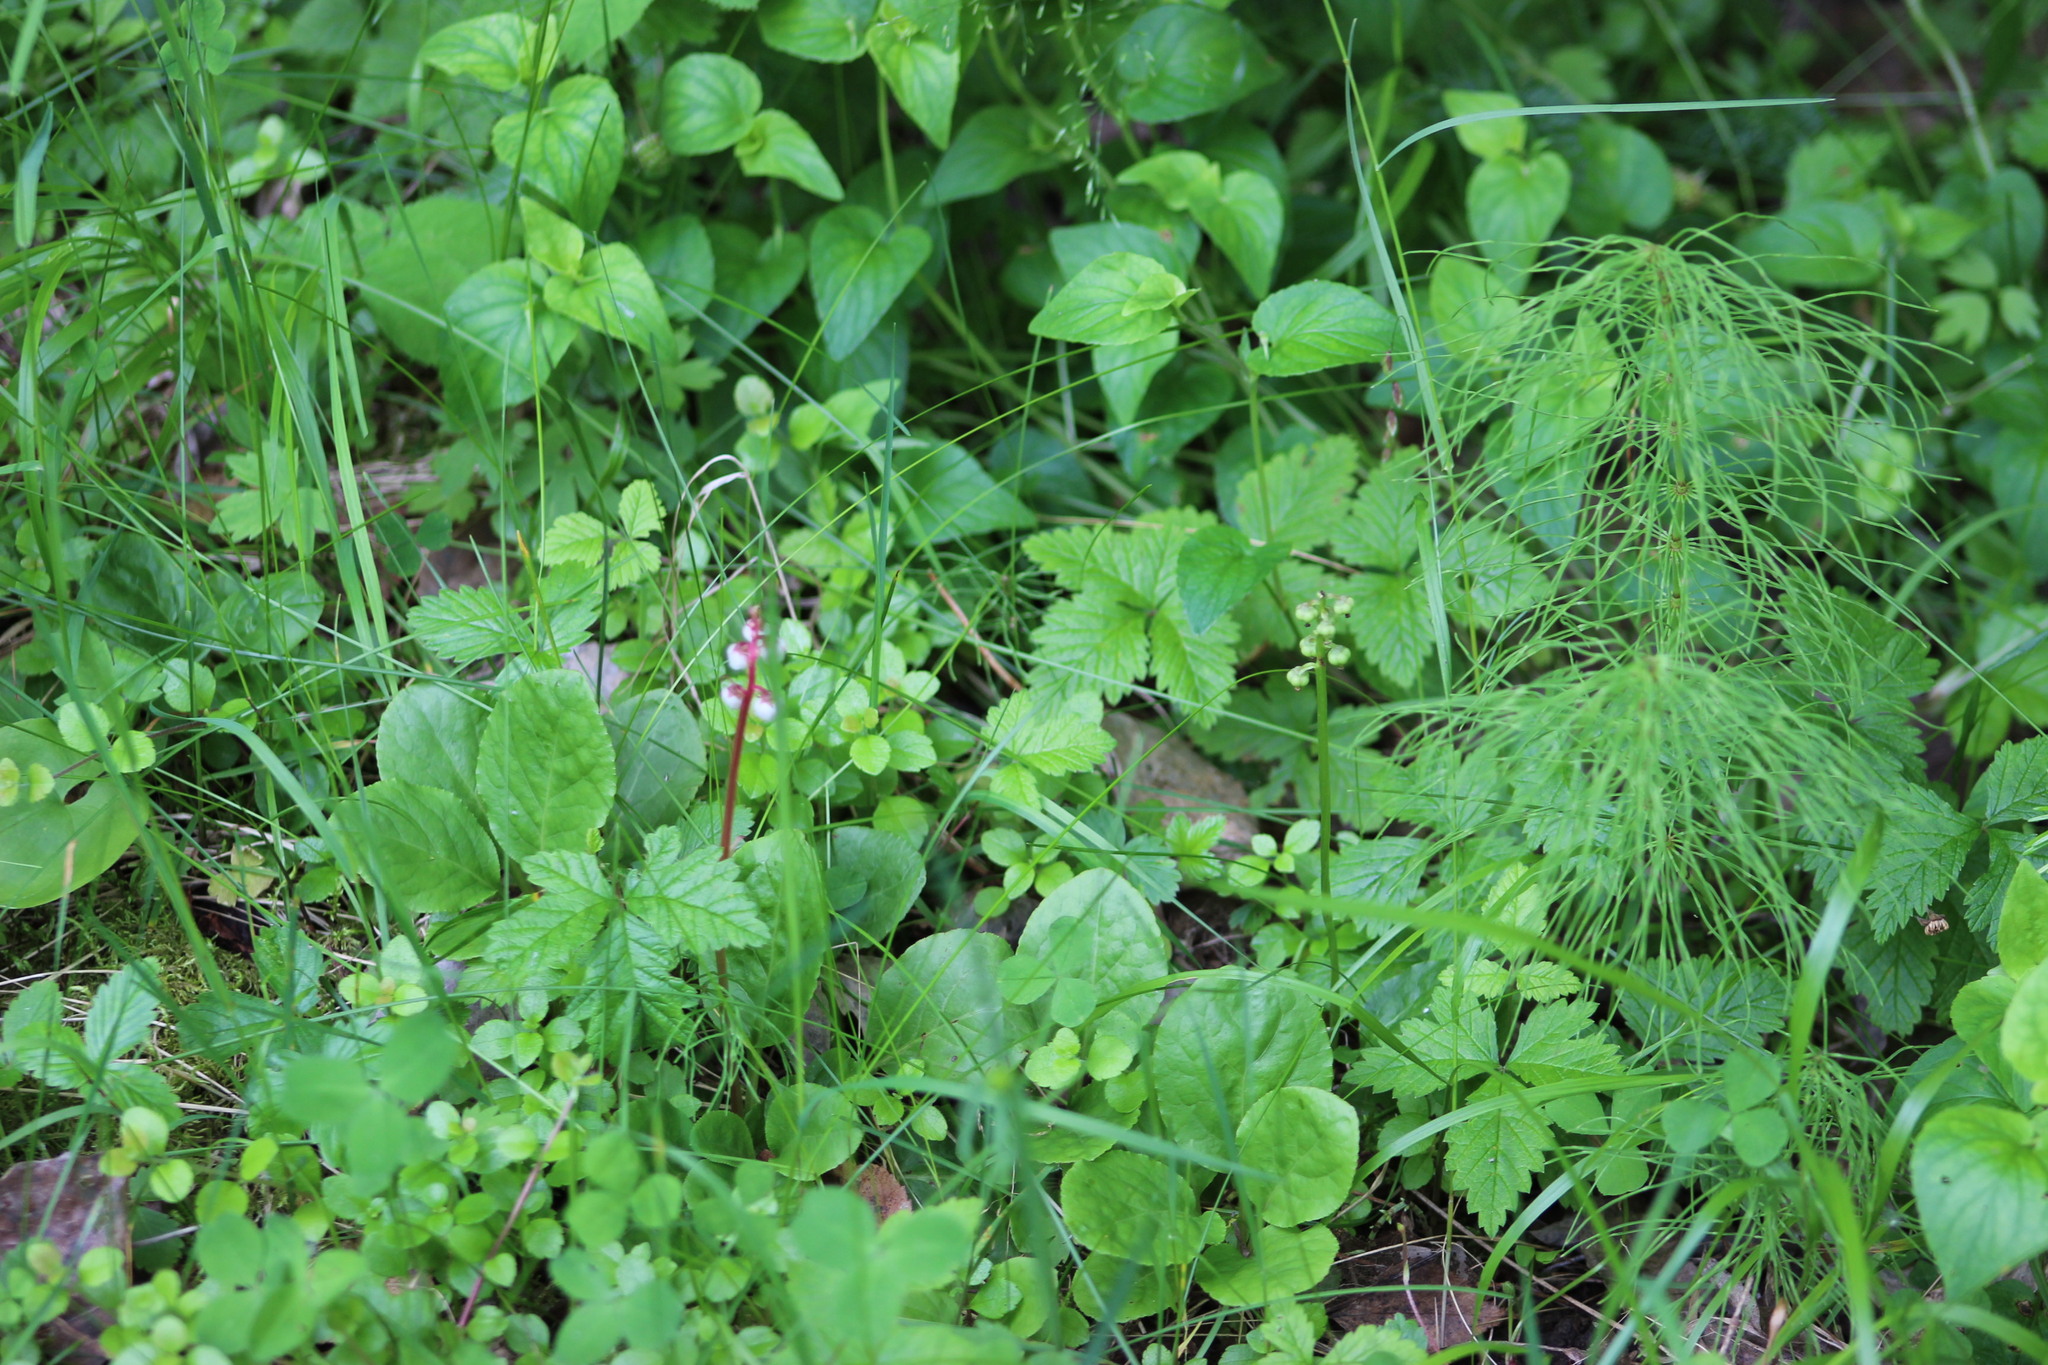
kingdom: Plantae
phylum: Tracheophyta
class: Magnoliopsida
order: Ericales
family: Ericaceae
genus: Pyrola
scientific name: Pyrola minor
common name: Common wintergreen
